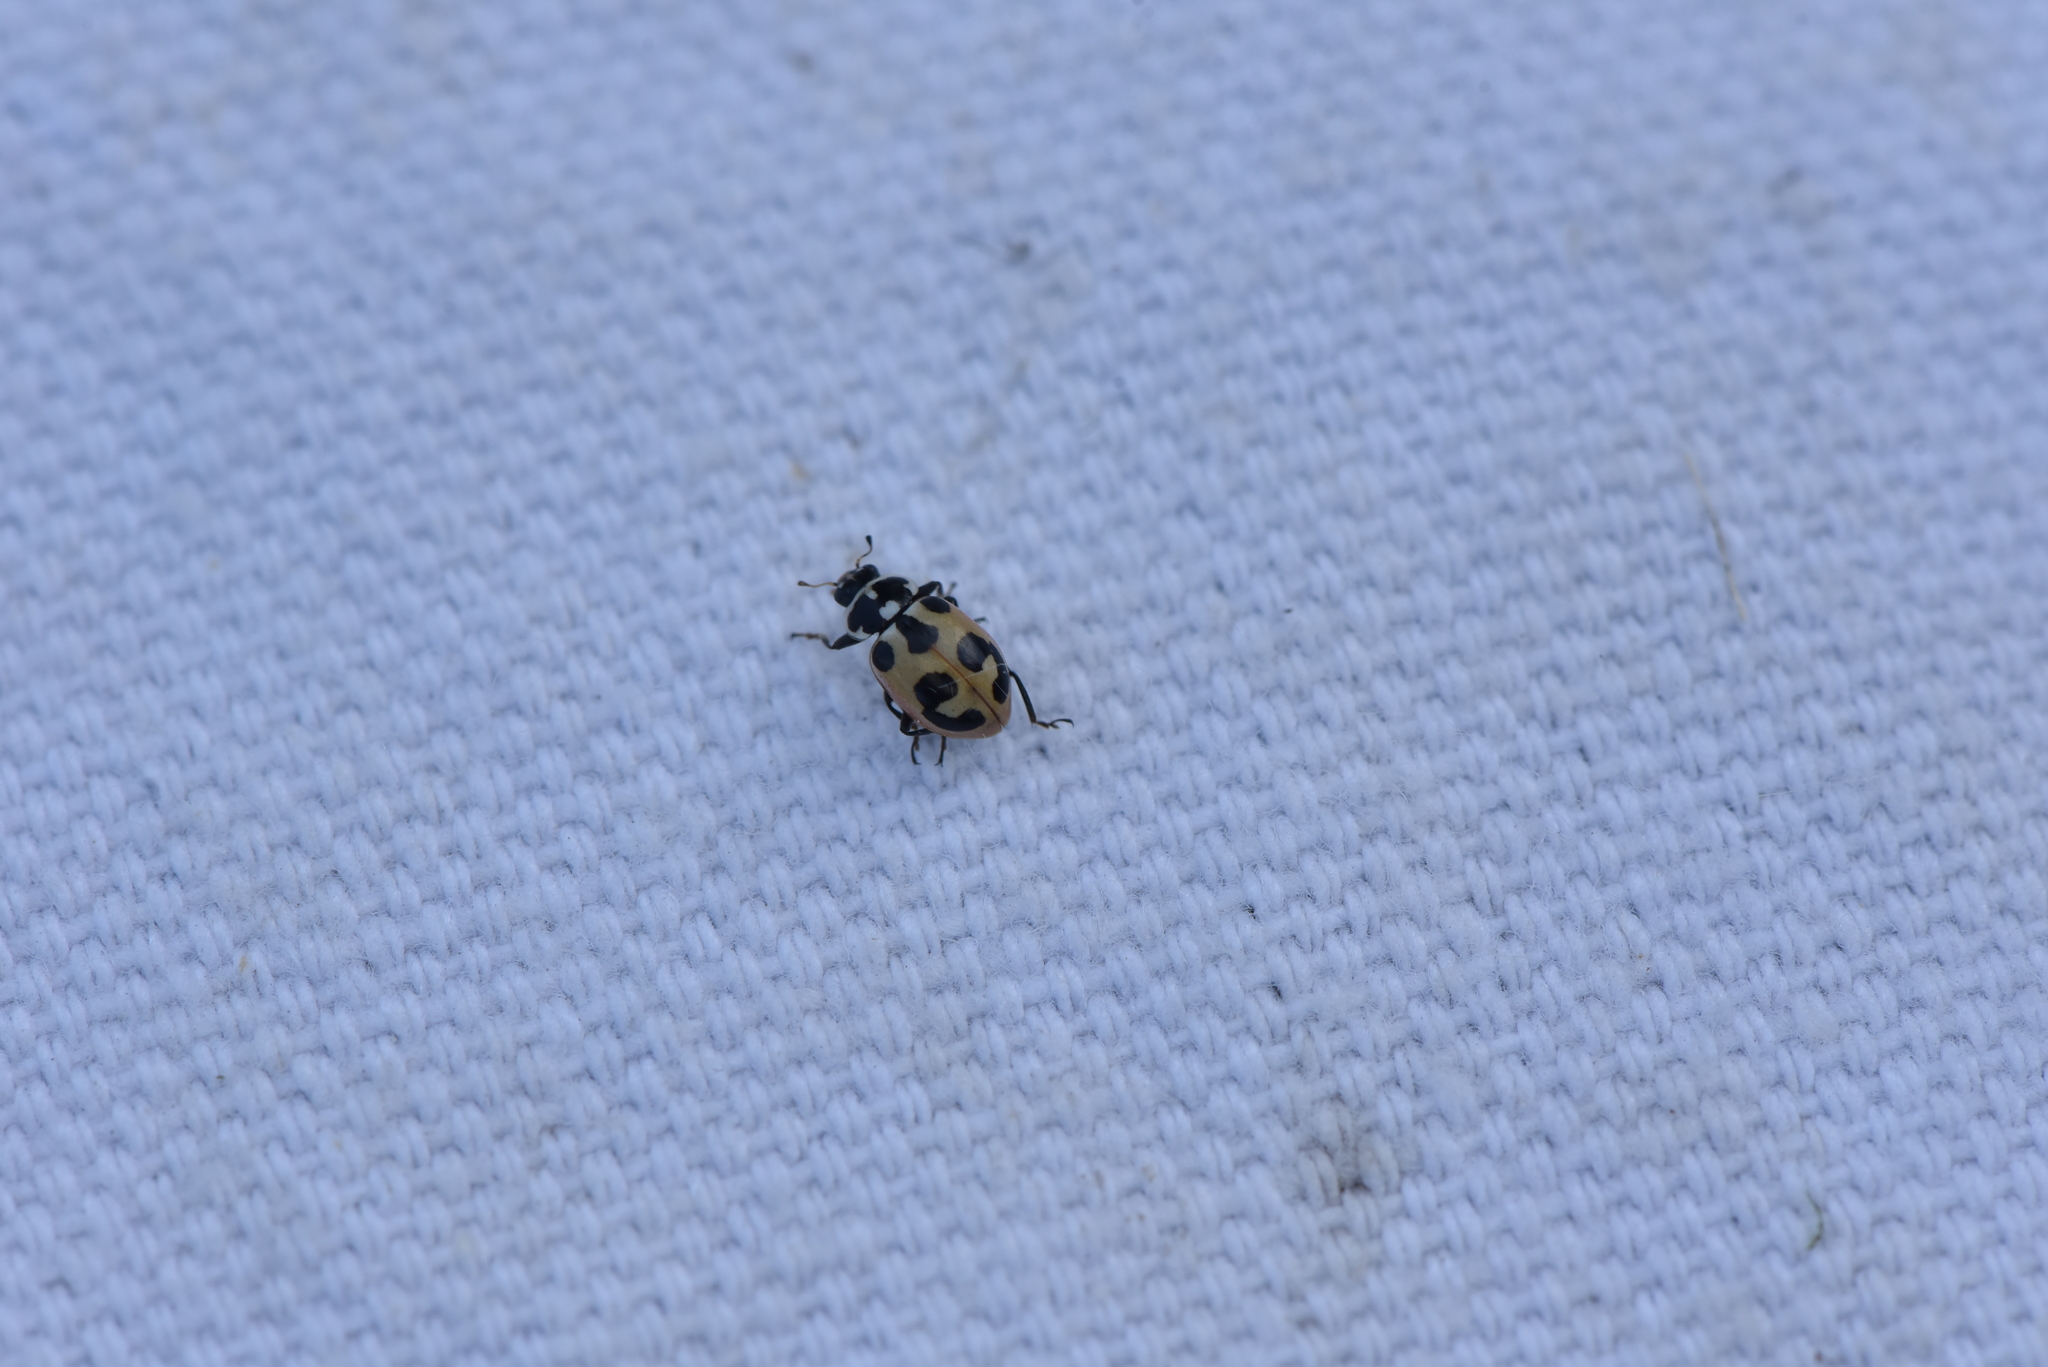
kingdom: Animalia
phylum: Arthropoda
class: Insecta
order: Coleoptera
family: Coccinellidae
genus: Hippodamia
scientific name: Hippodamia parenthesis
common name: Parenthesis lady beetle
